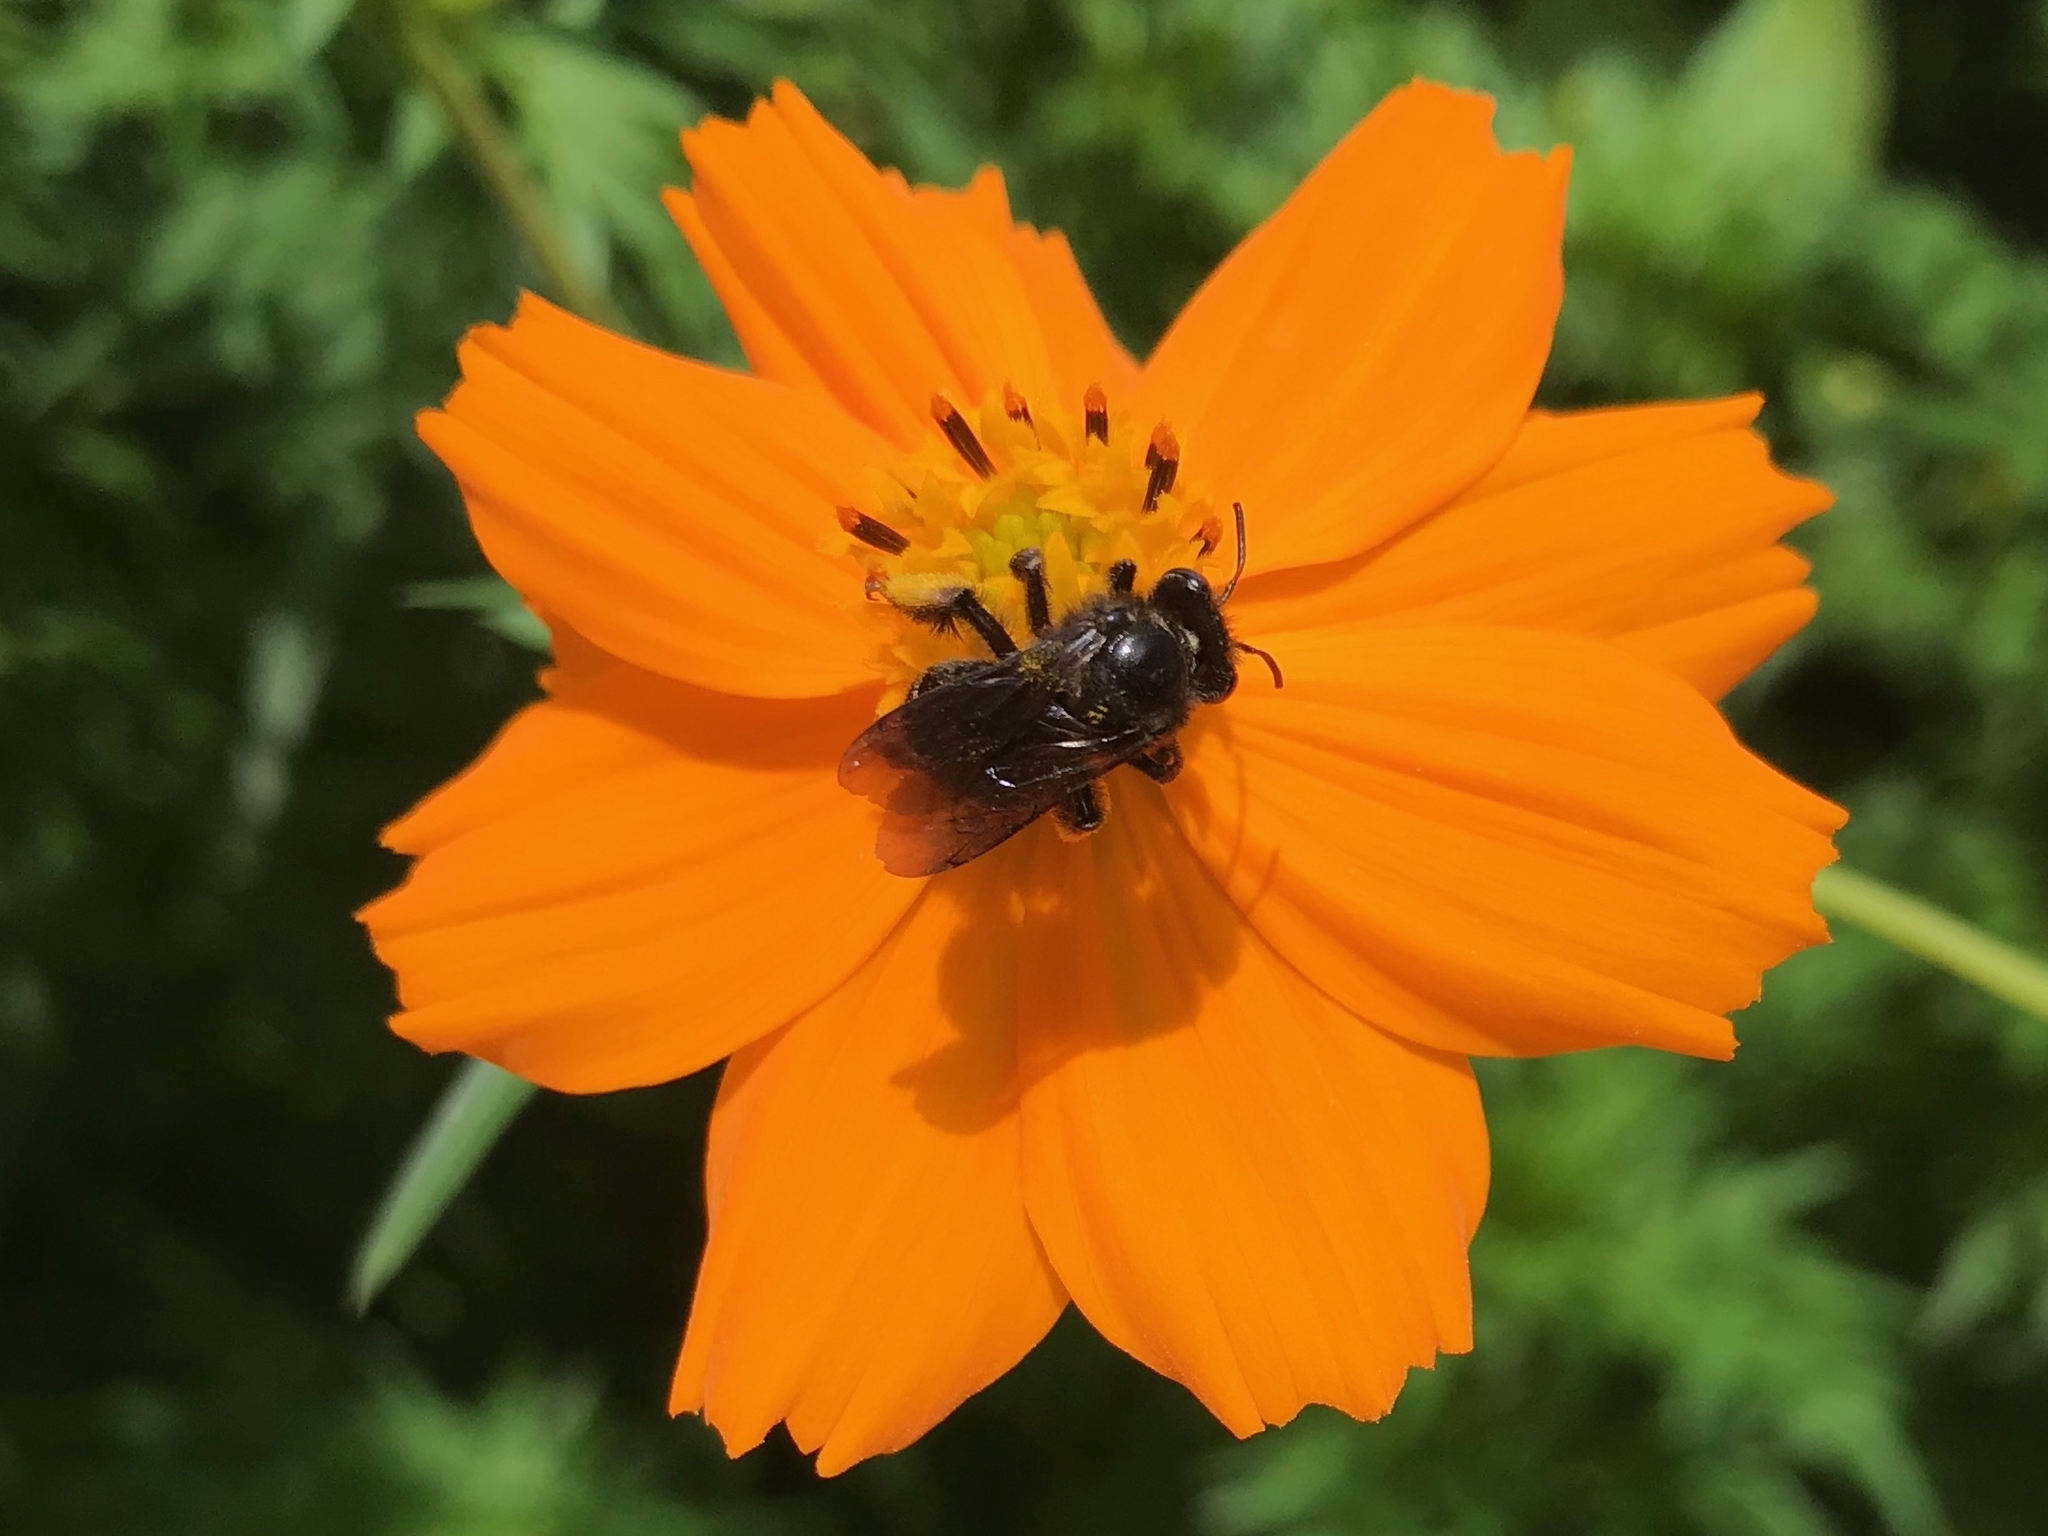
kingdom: Animalia
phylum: Arthropoda
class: Insecta
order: Hymenoptera
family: Apidae
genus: Melissodes
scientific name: Melissodes bimaculatus
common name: Two-spotted long-horned bee
